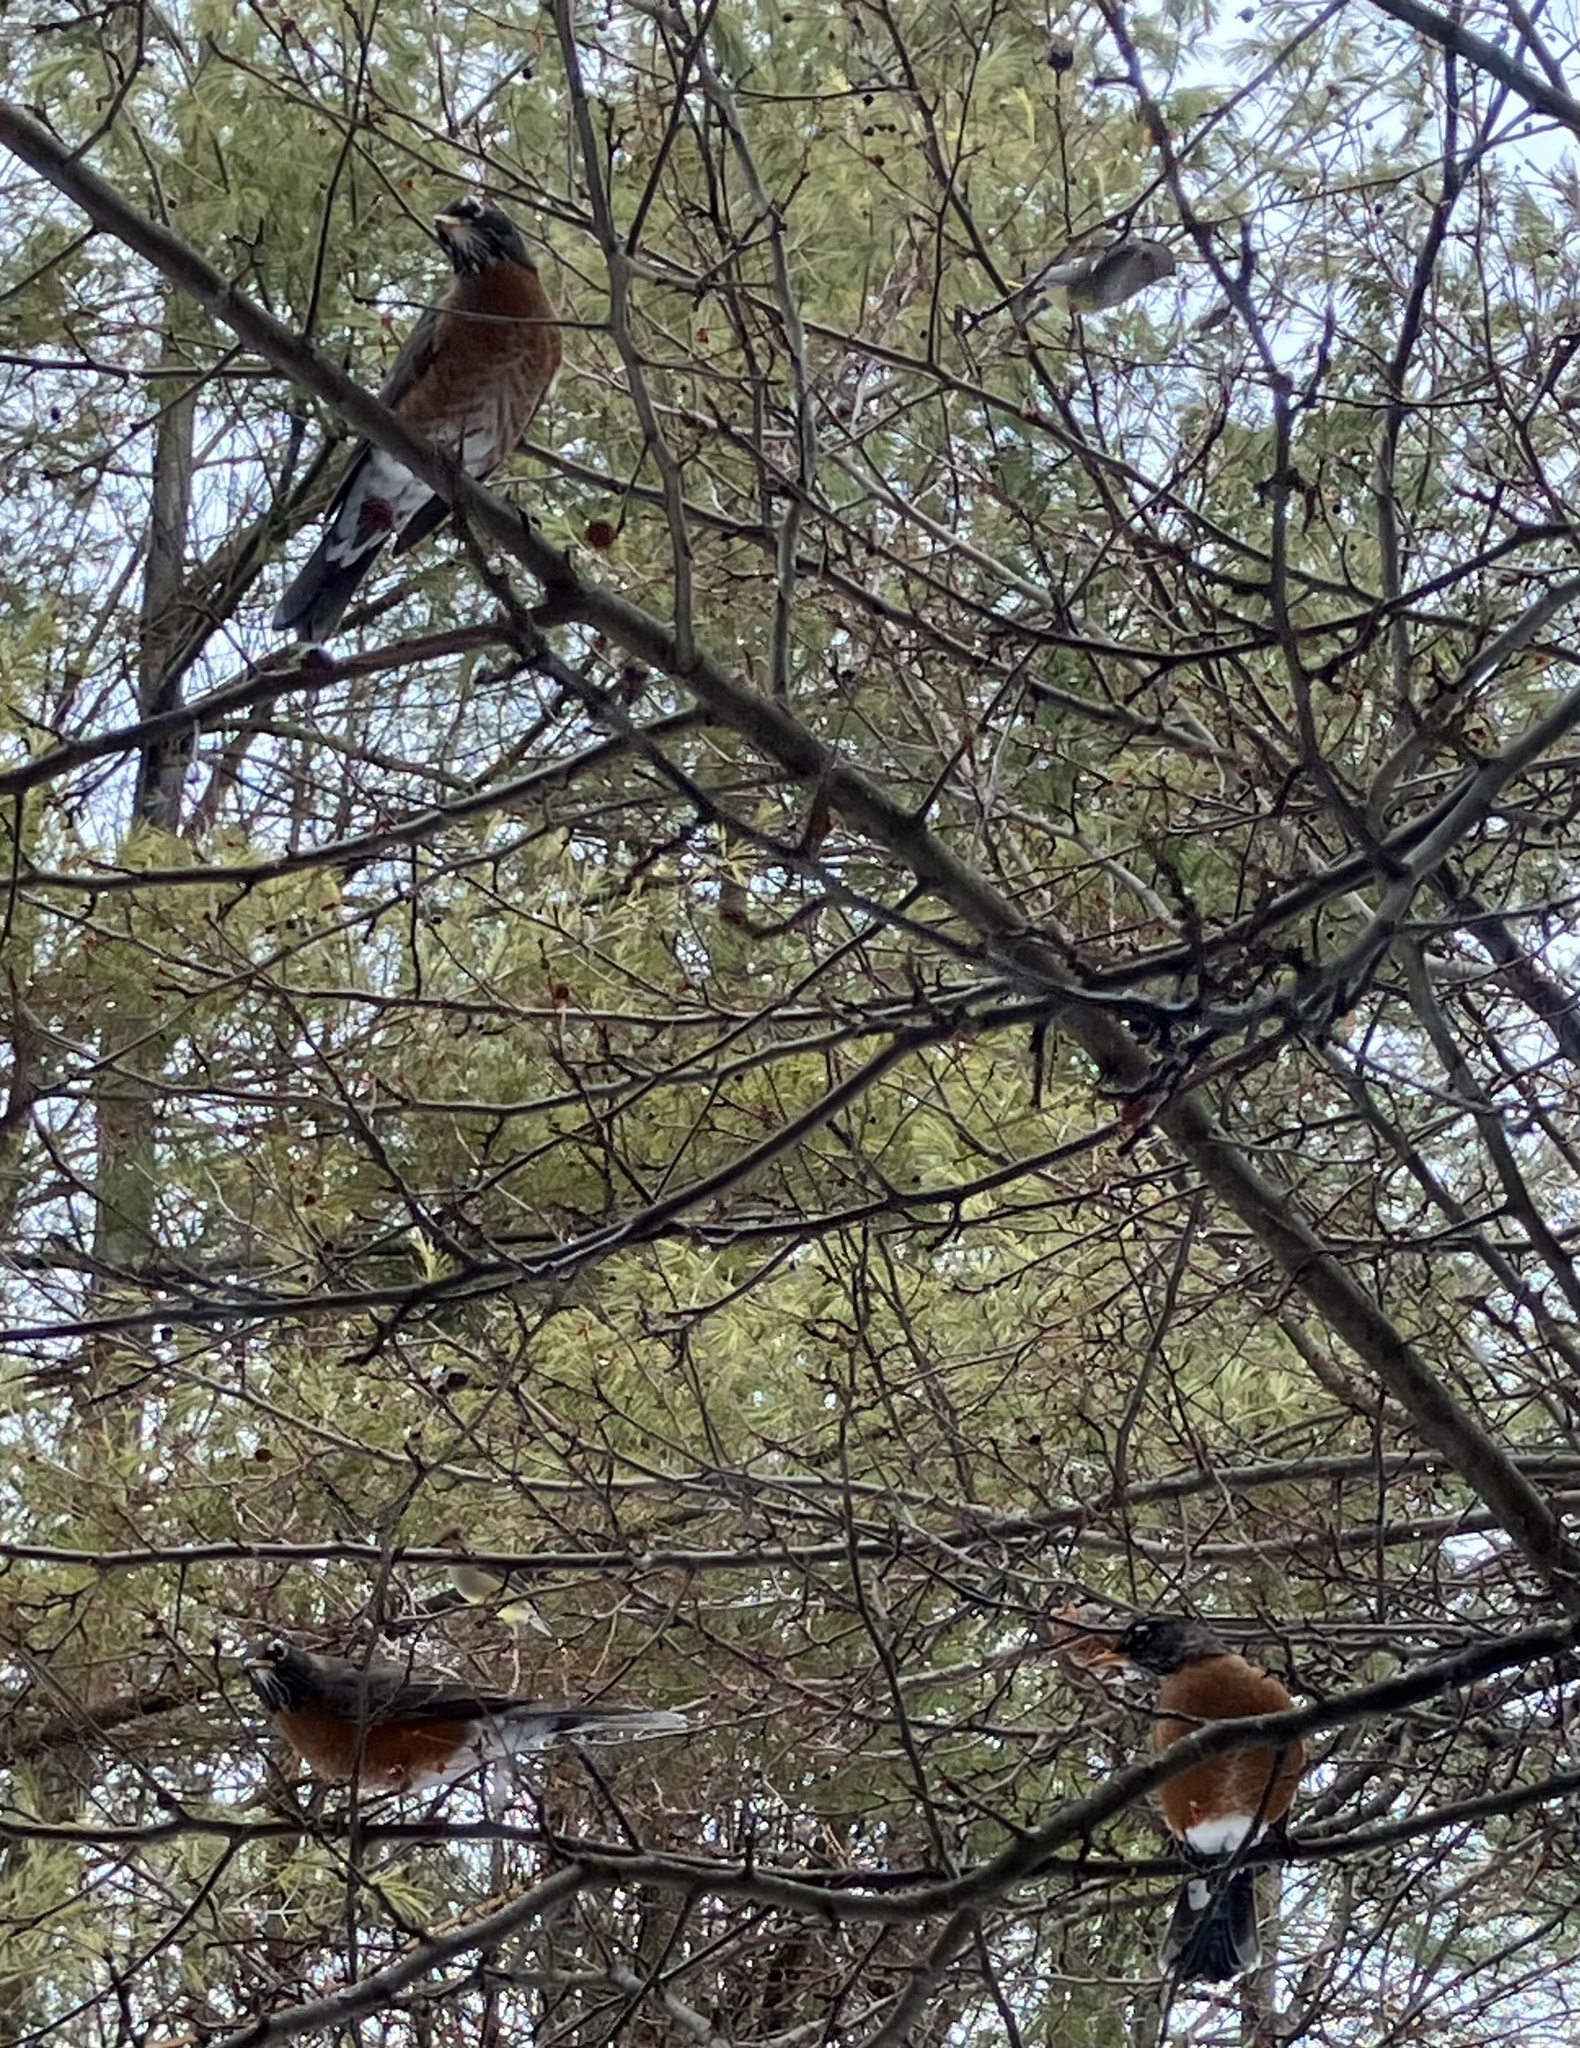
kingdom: Animalia
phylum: Chordata
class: Aves
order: Passeriformes
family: Turdidae
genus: Turdus
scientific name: Turdus migratorius
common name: American robin
